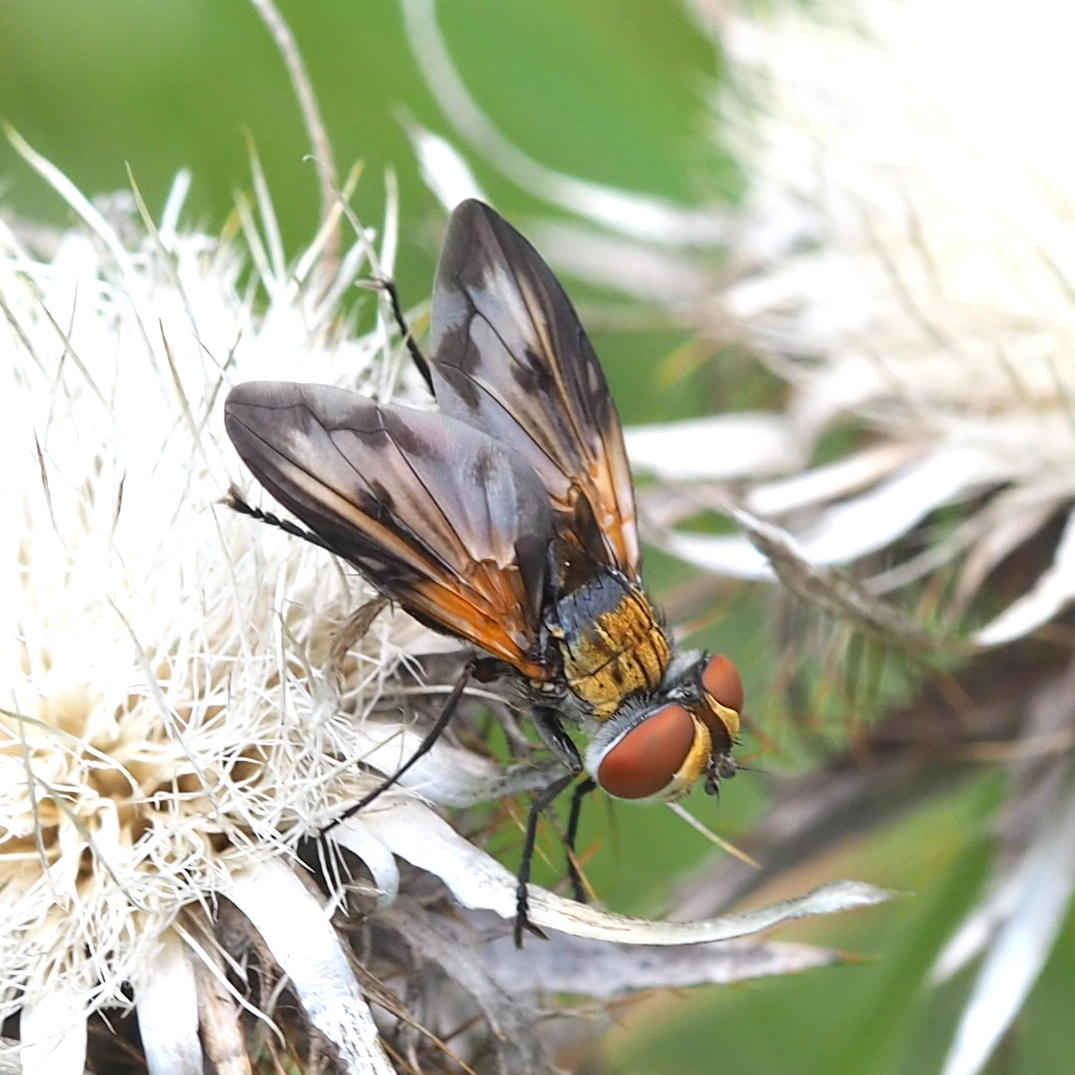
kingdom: Animalia
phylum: Arthropoda
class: Insecta
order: Diptera
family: Tachinidae
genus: Ectophasia
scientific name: Ectophasia oblonga
